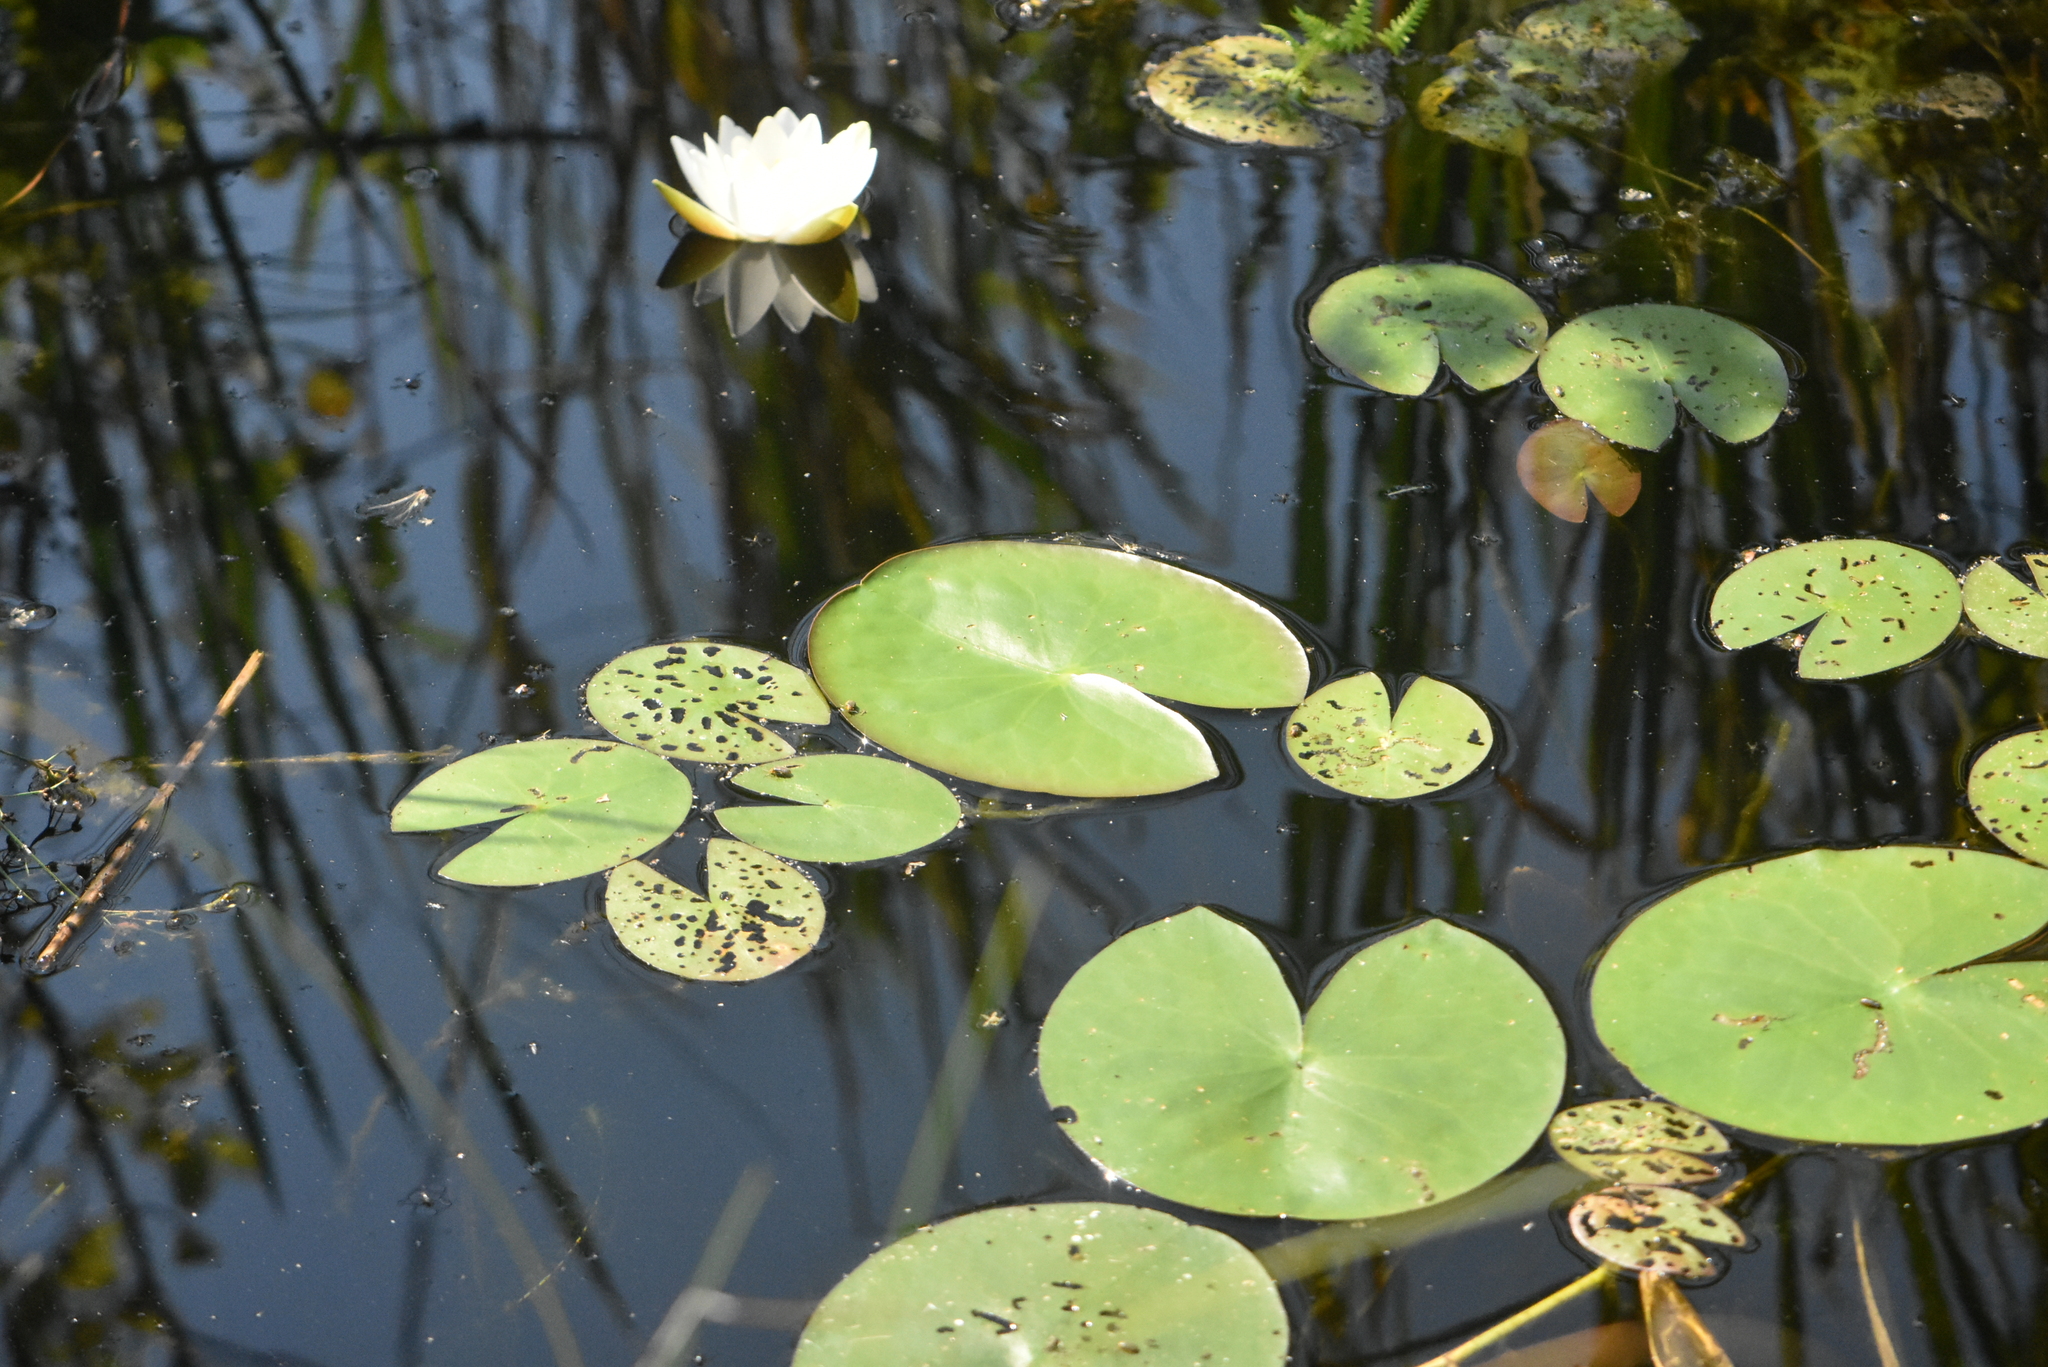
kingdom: Plantae
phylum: Tracheophyta
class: Magnoliopsida
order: Nymphaeales
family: Nymphaeaceae
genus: Nymphaea
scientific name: Nymphaea candida
